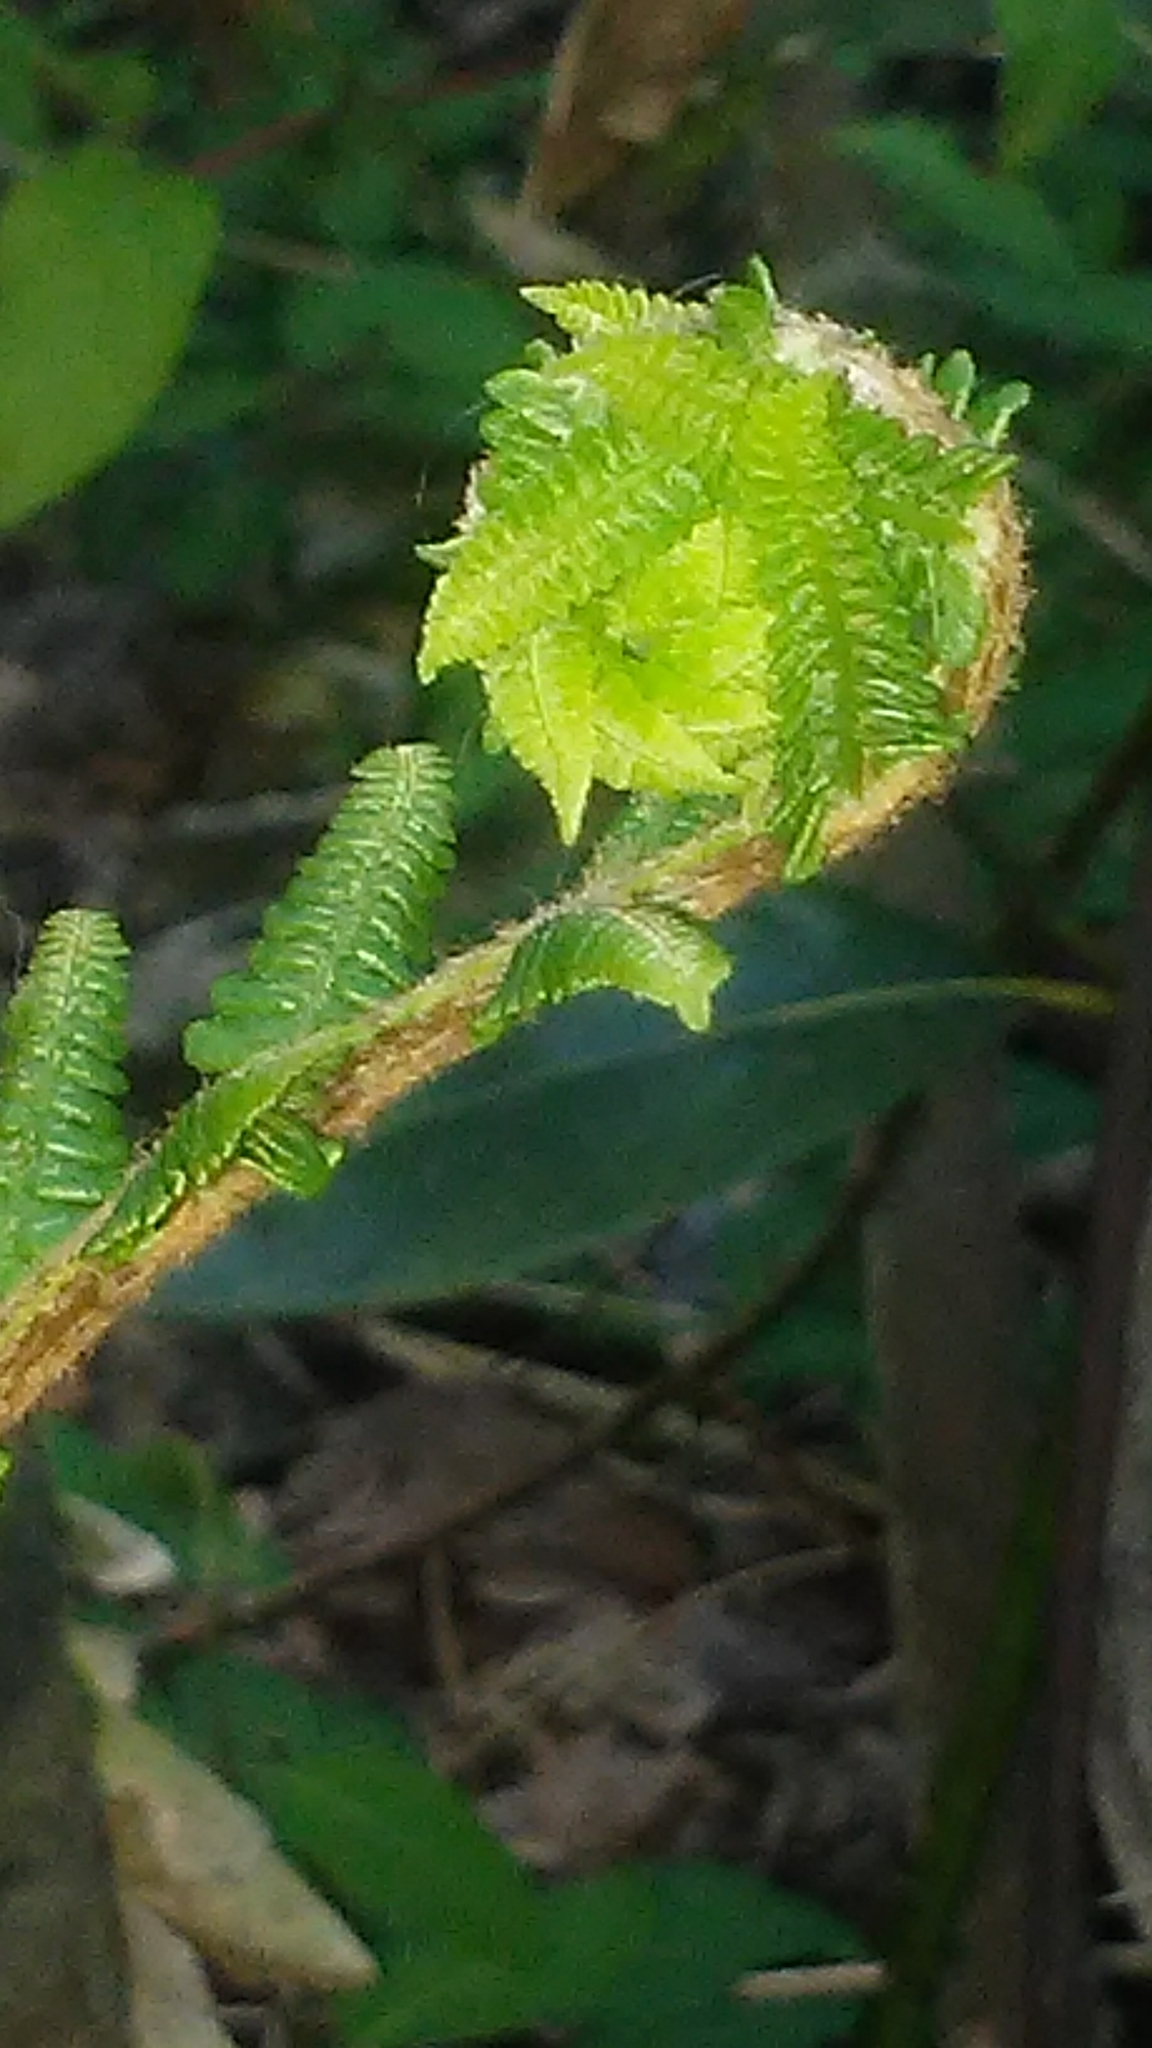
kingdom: Plantae
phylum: Tracheophyta
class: Polypodiopsida
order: Osmundales
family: Osmundaceae
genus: Osmundastrum
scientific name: Osmundastrum cinnamomeum
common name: Cinnamon fern
